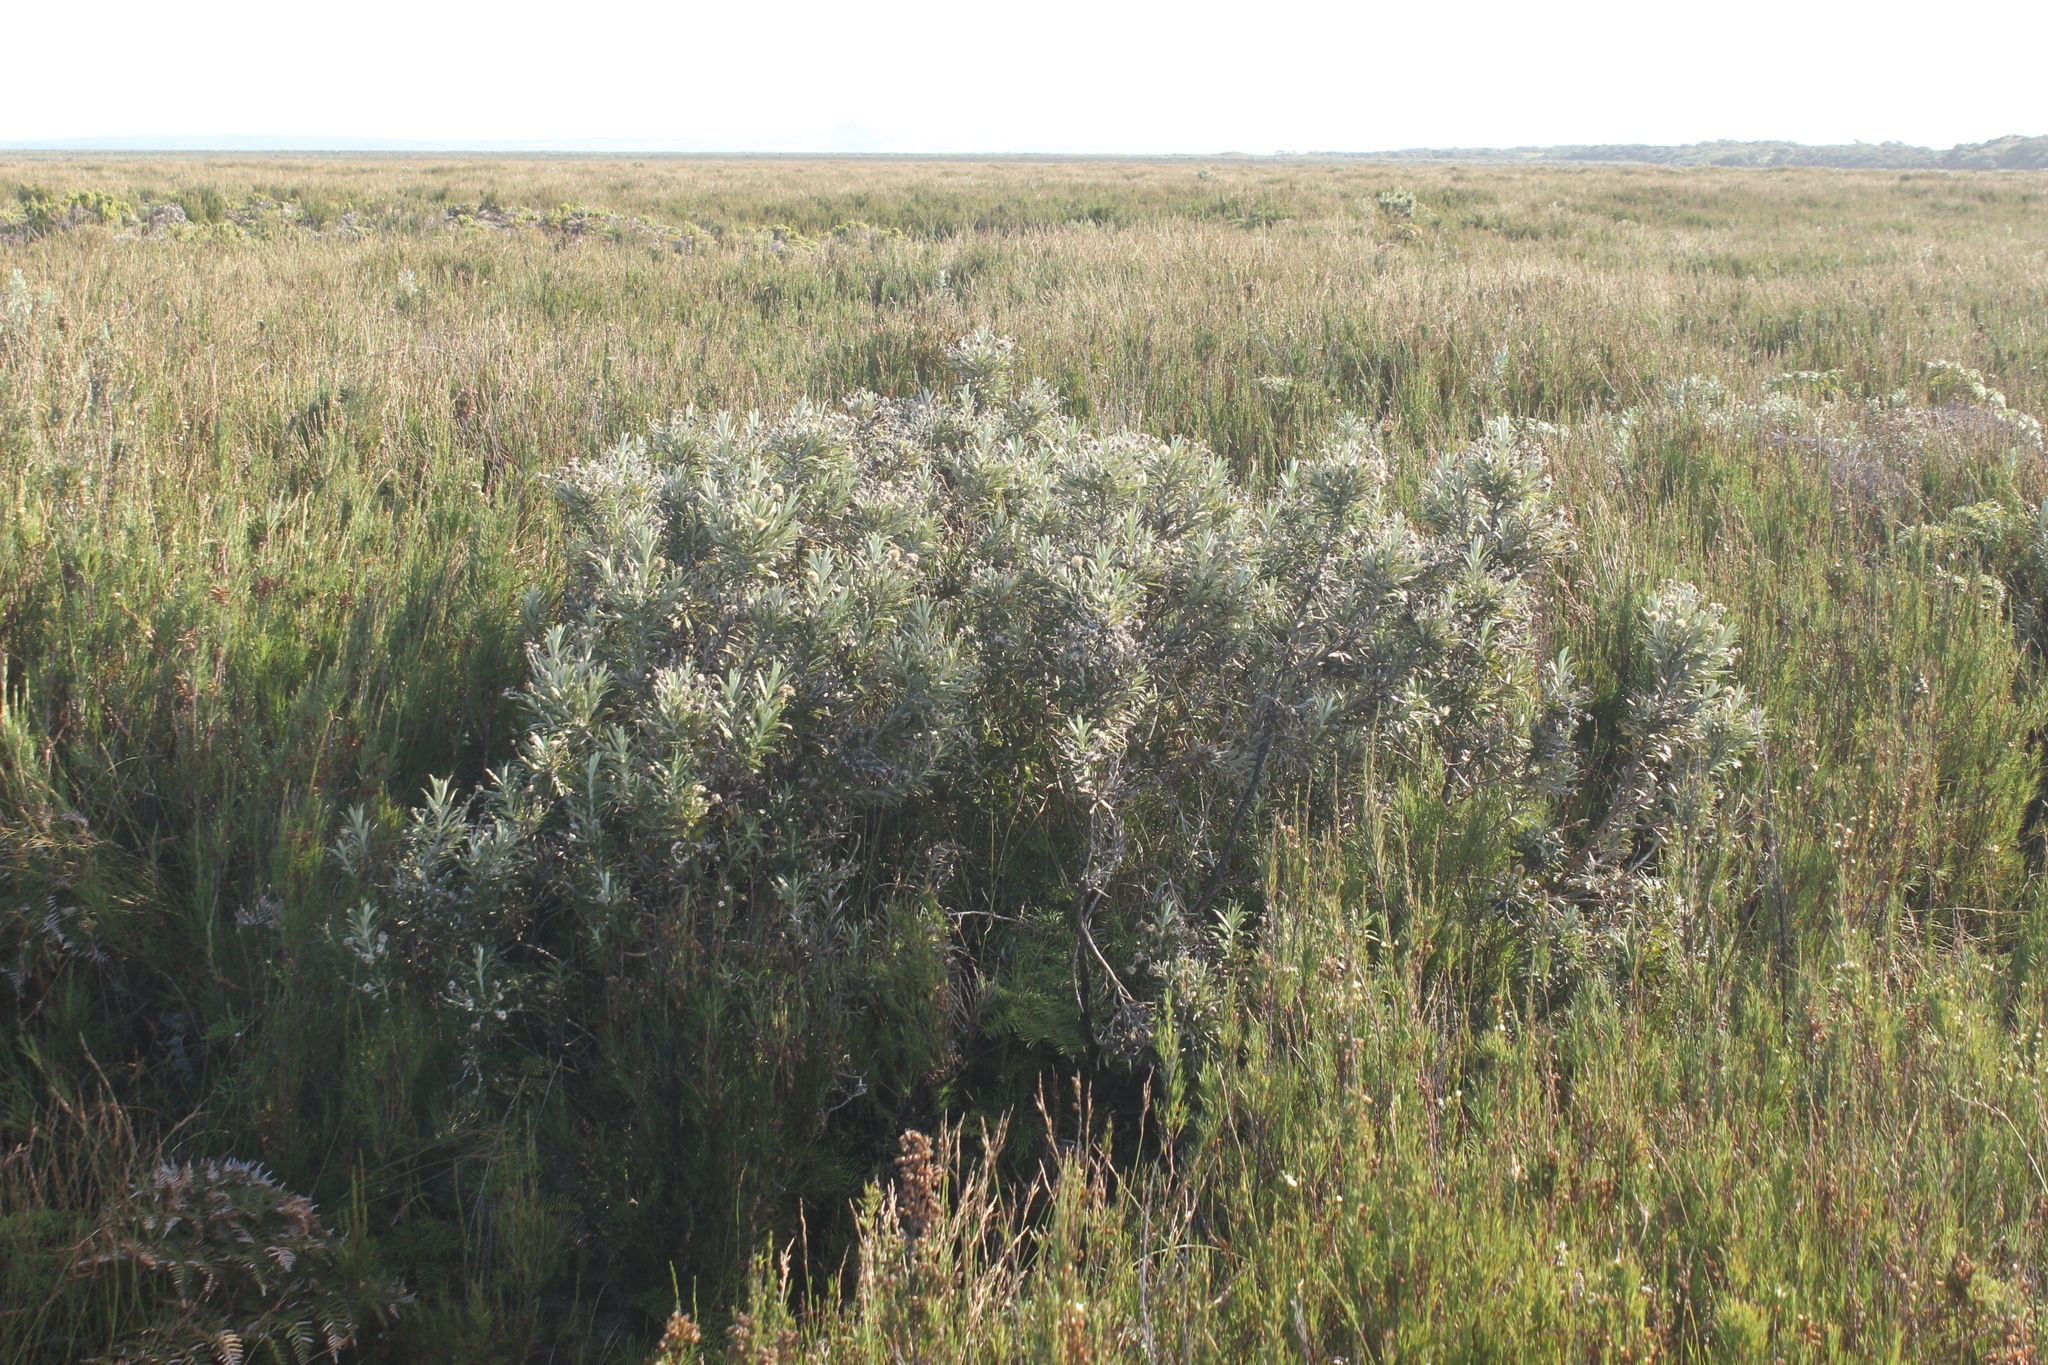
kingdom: Plantae
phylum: Tracheophyta
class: Magnoliopsida
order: Asterales
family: Asteraceae
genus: Macrolearia
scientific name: Macrolearia semidentata
